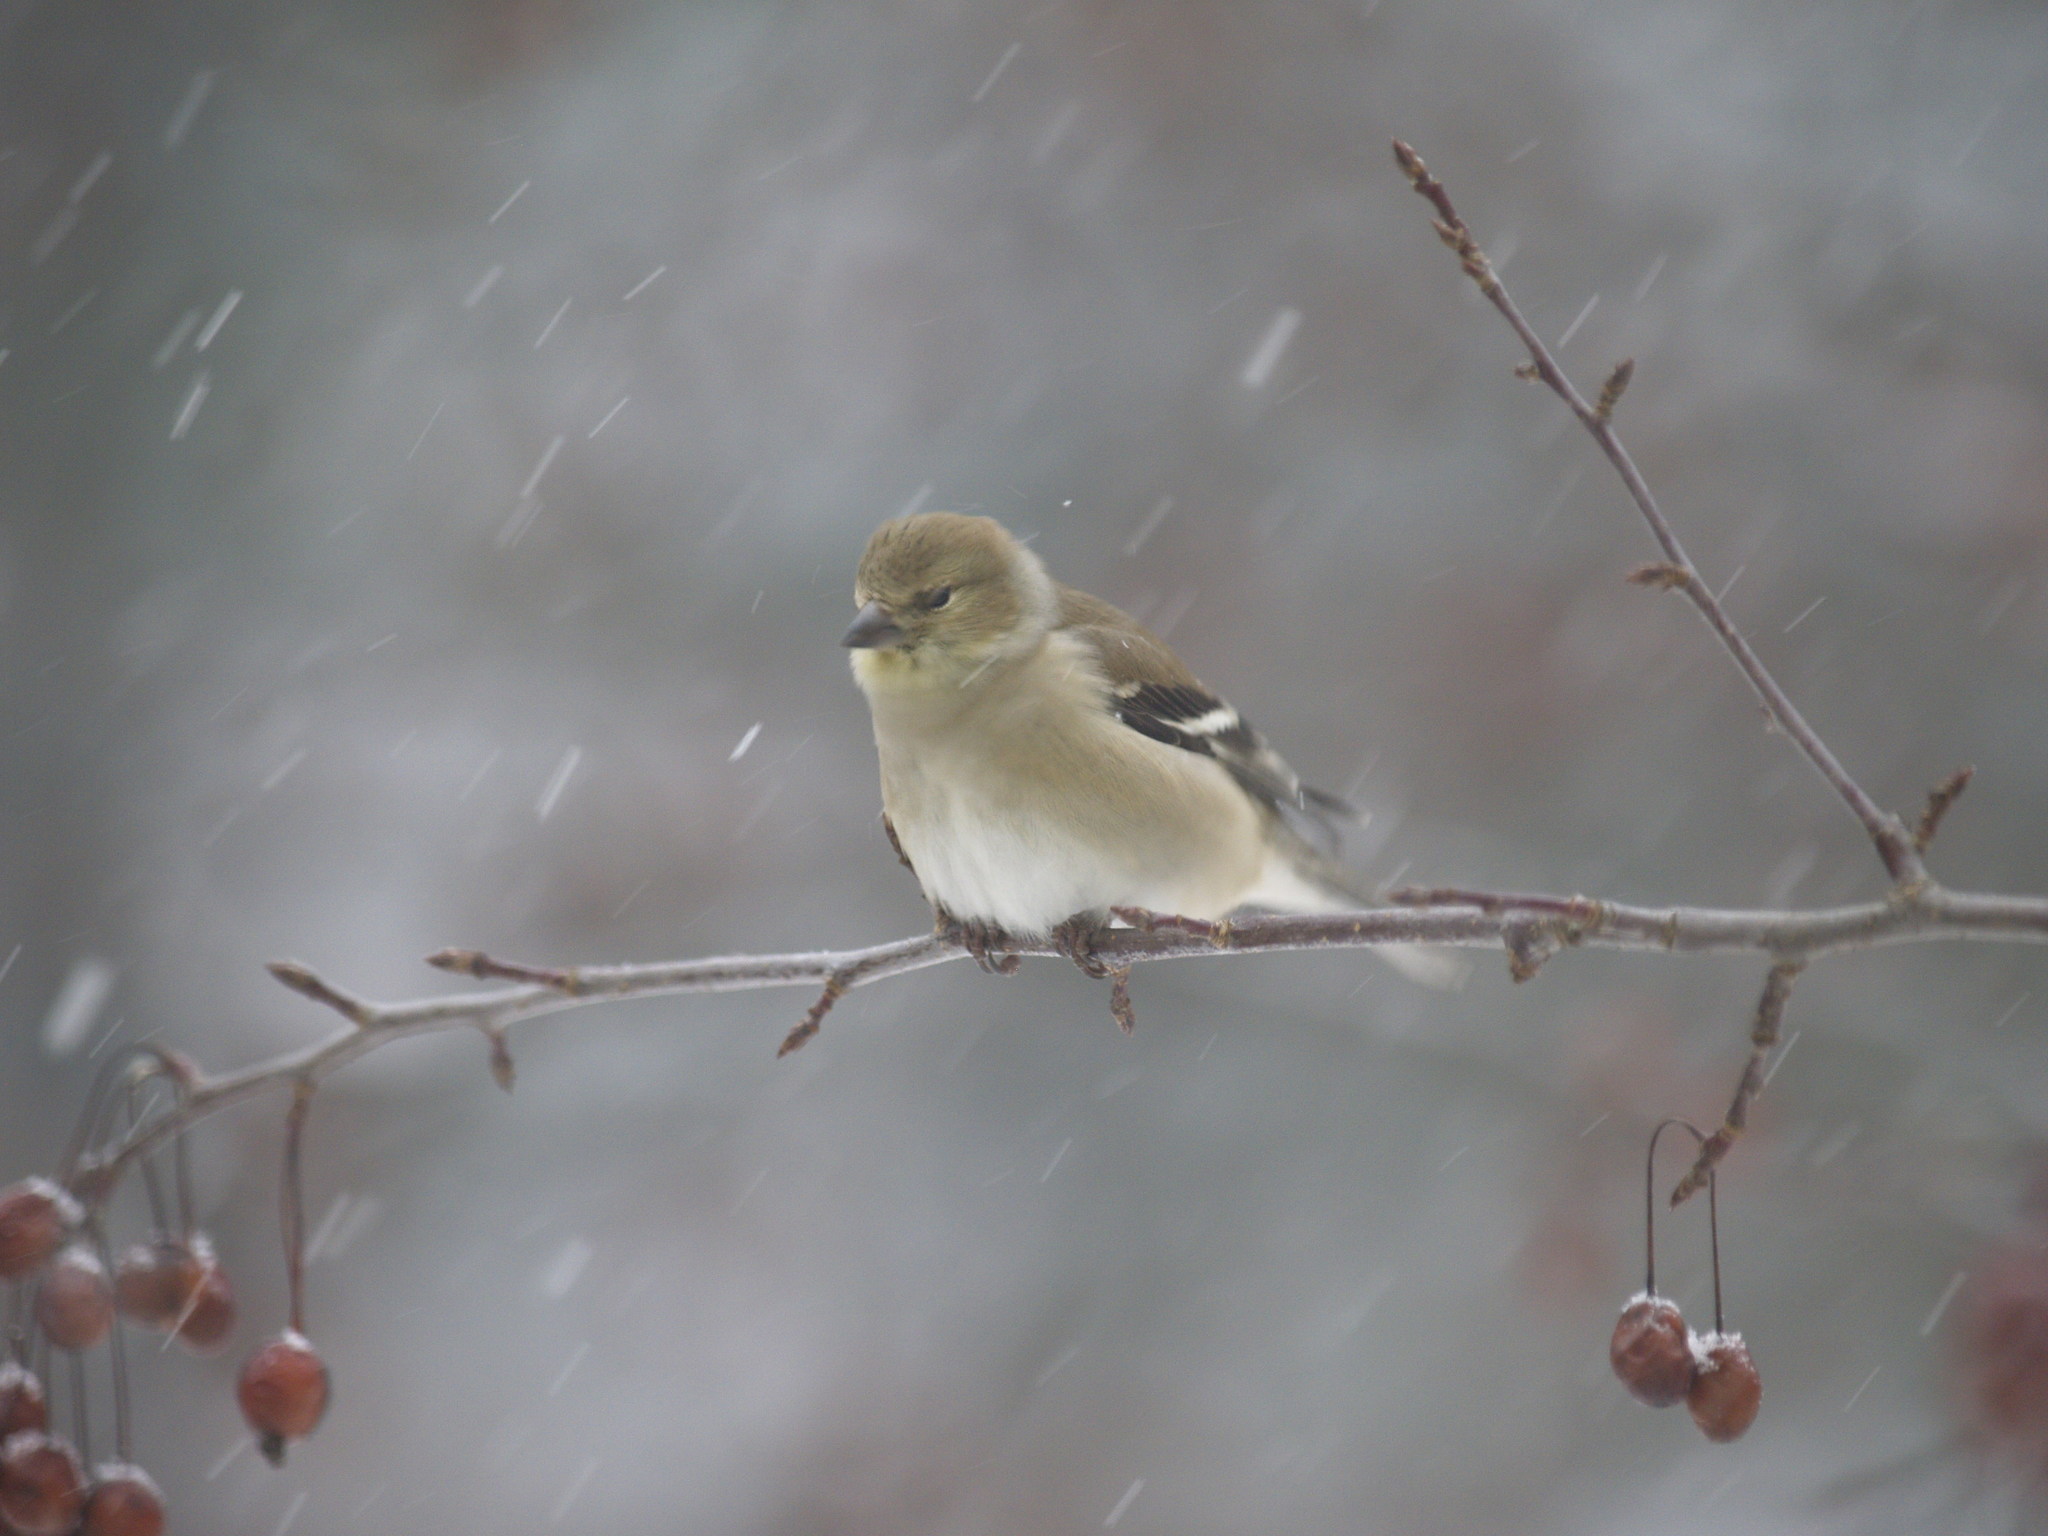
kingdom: Animalia
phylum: Chordata
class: Aves
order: Passeriformes
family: Fringillidae
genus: Spinus
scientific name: Spinus tristis
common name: American goldfinch
